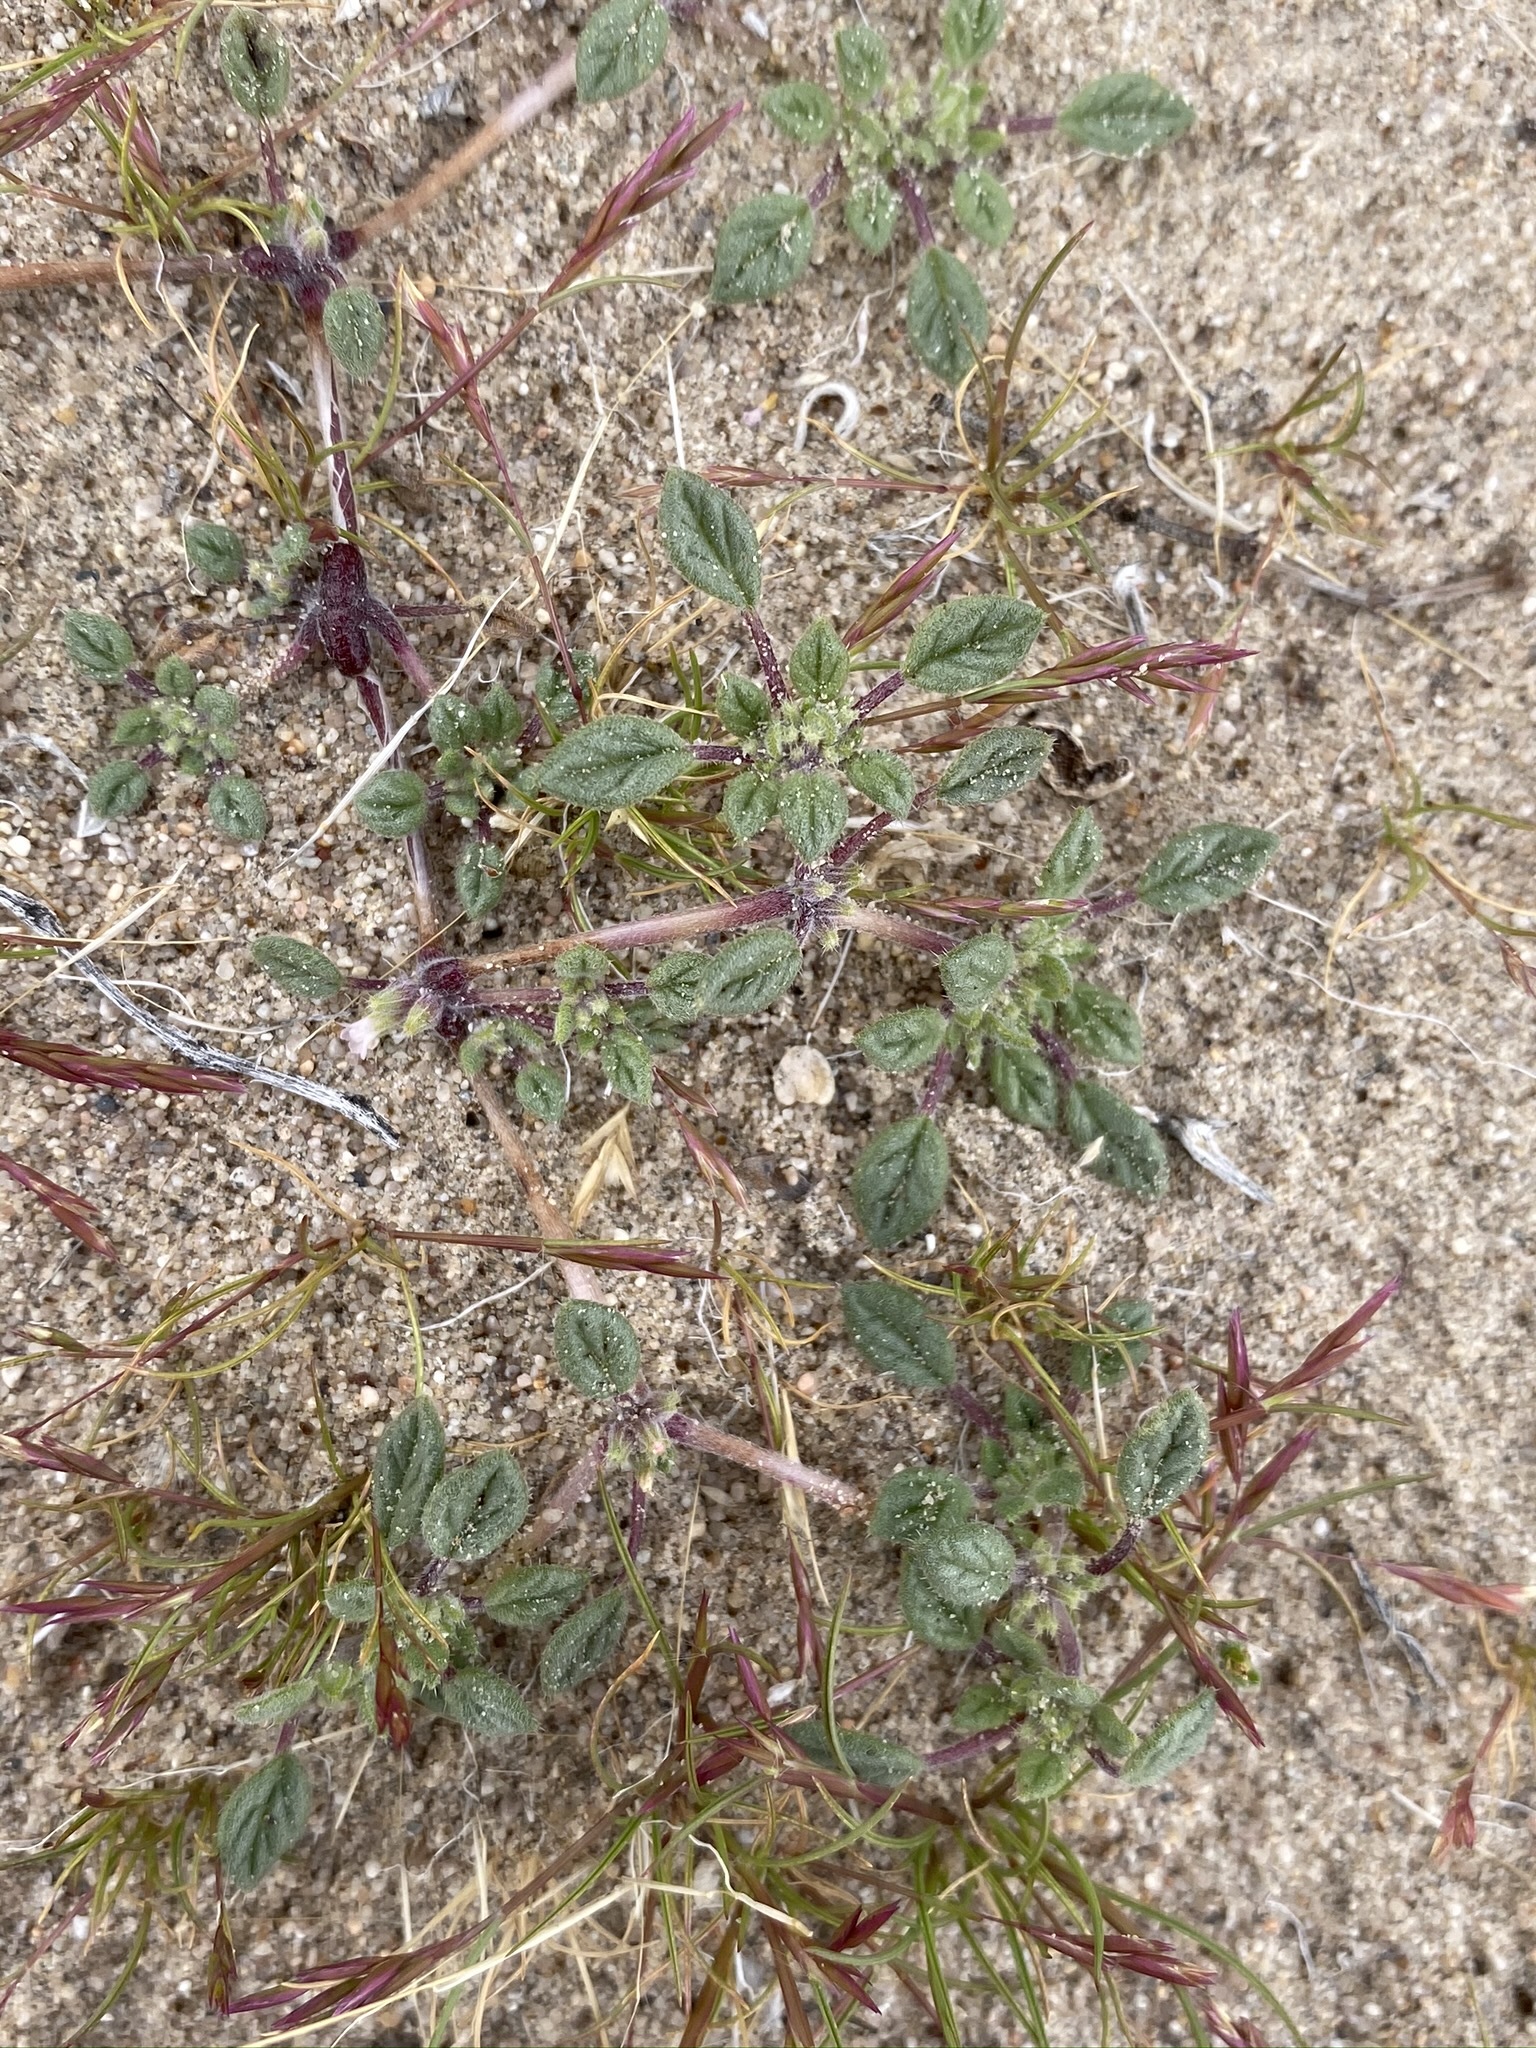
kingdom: Plantae
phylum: Tracheophyta
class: Magnoliopsida
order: Boraginales
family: Ehretiaceae
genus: Tiquilia
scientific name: Tiquilia nuttallii
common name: Rosette tiquilia
